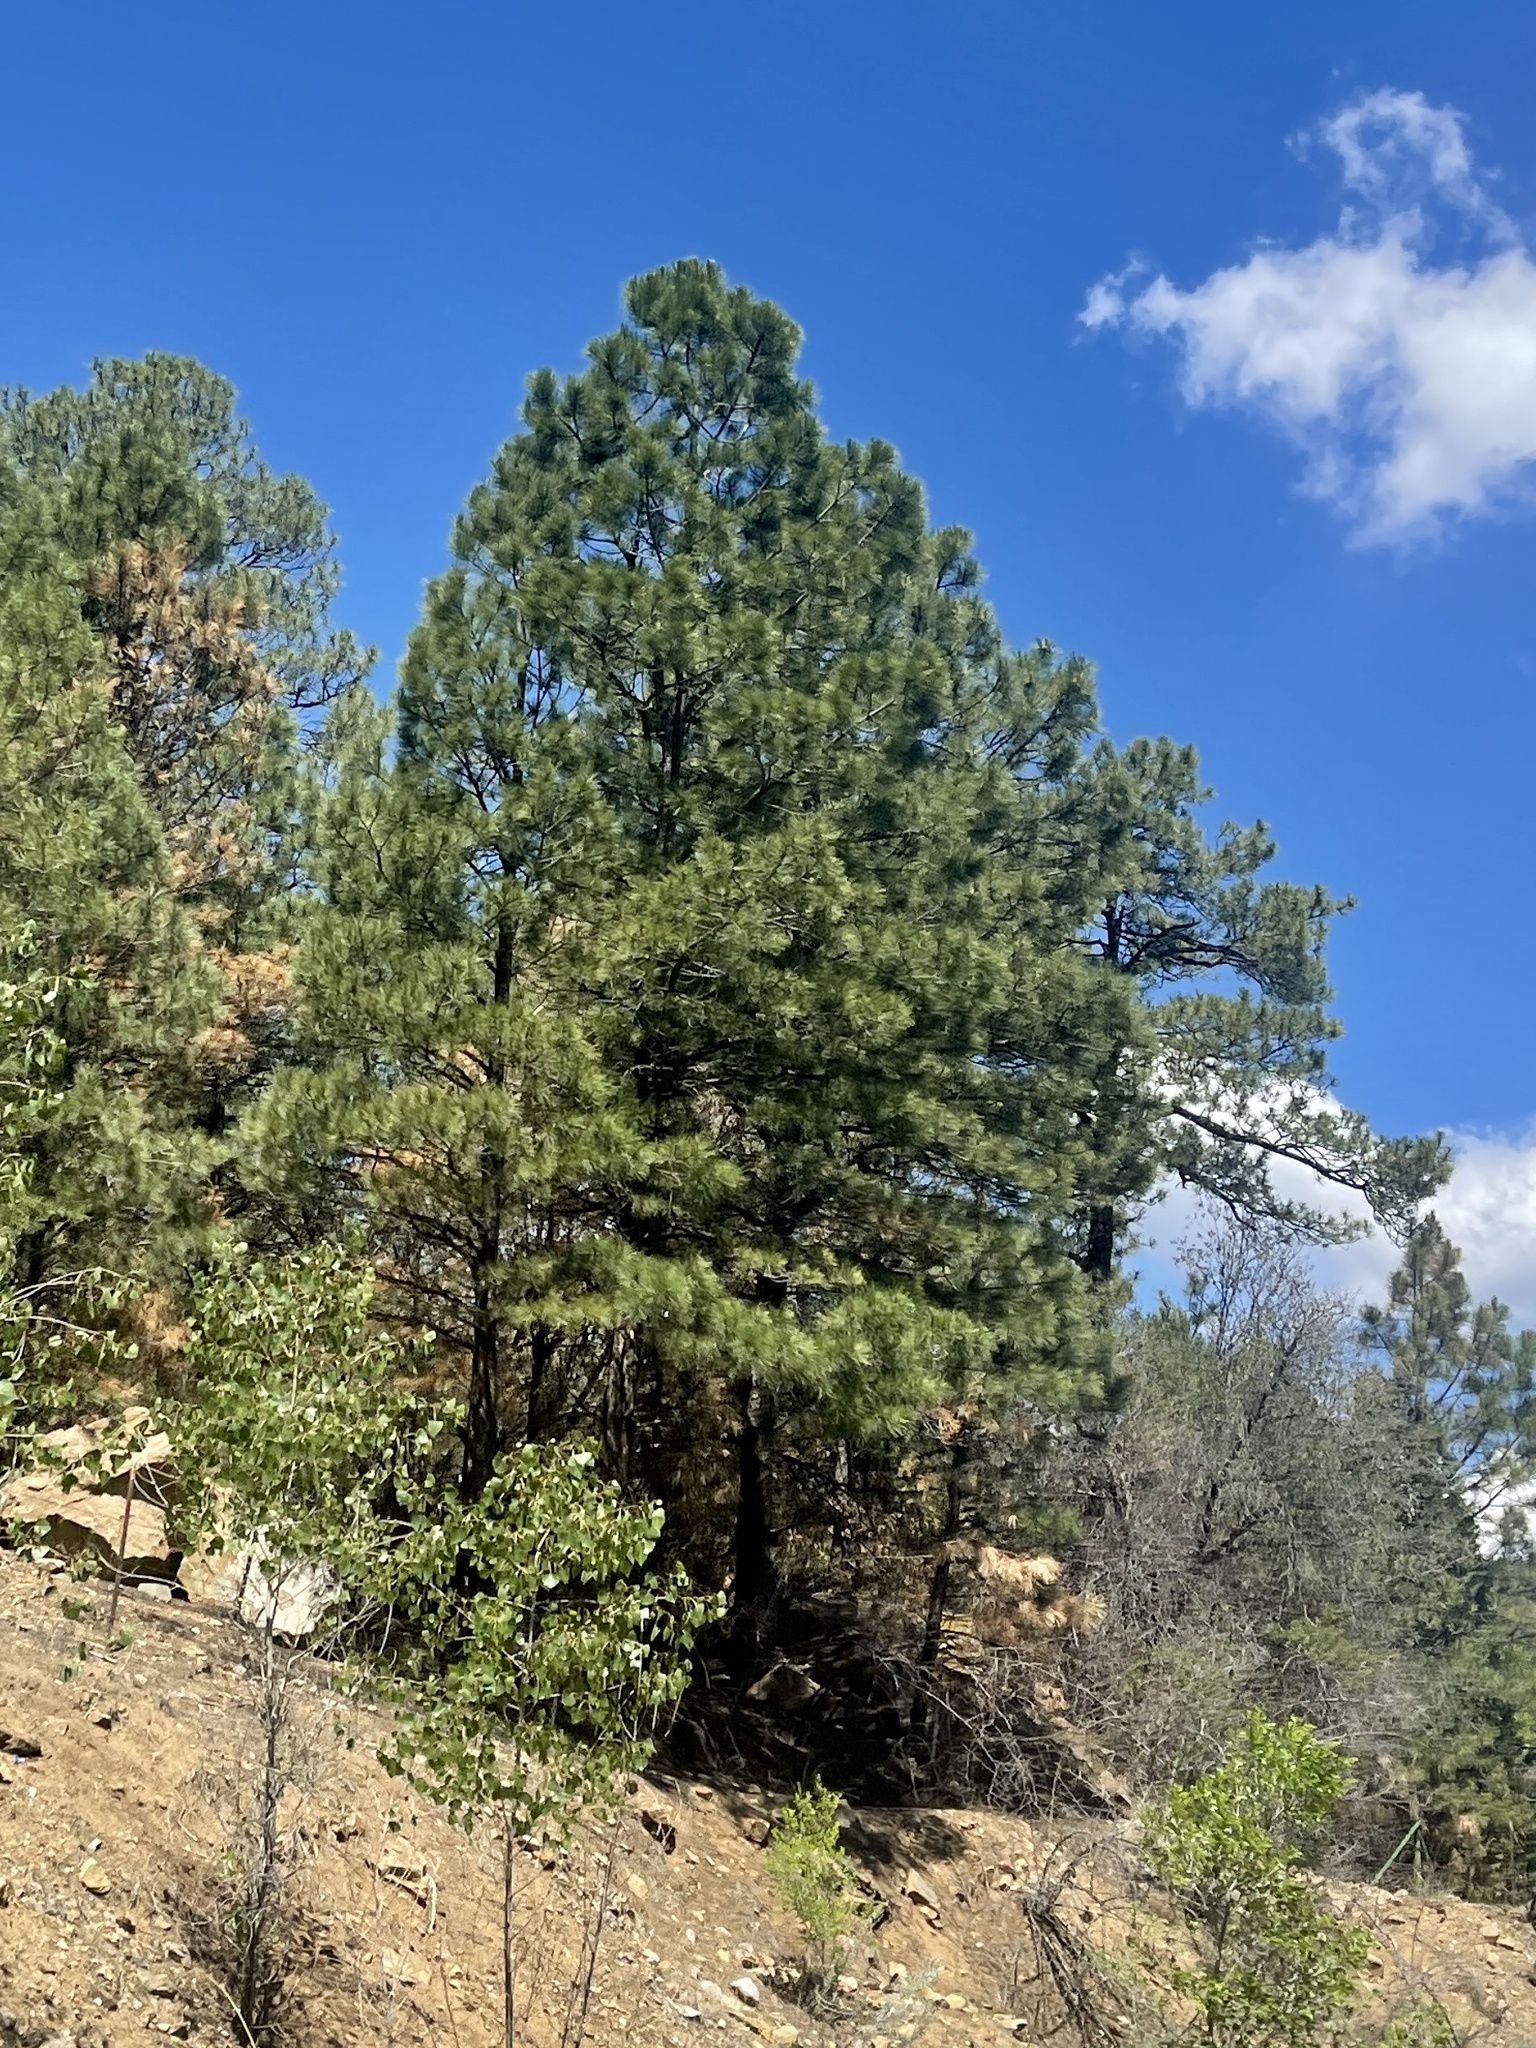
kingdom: Plantae
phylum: Tracheophyta
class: Pinopsida
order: Pinales
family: Pinaceae
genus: Pinus
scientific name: Pinus ponderosa
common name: Western yellow-pine
